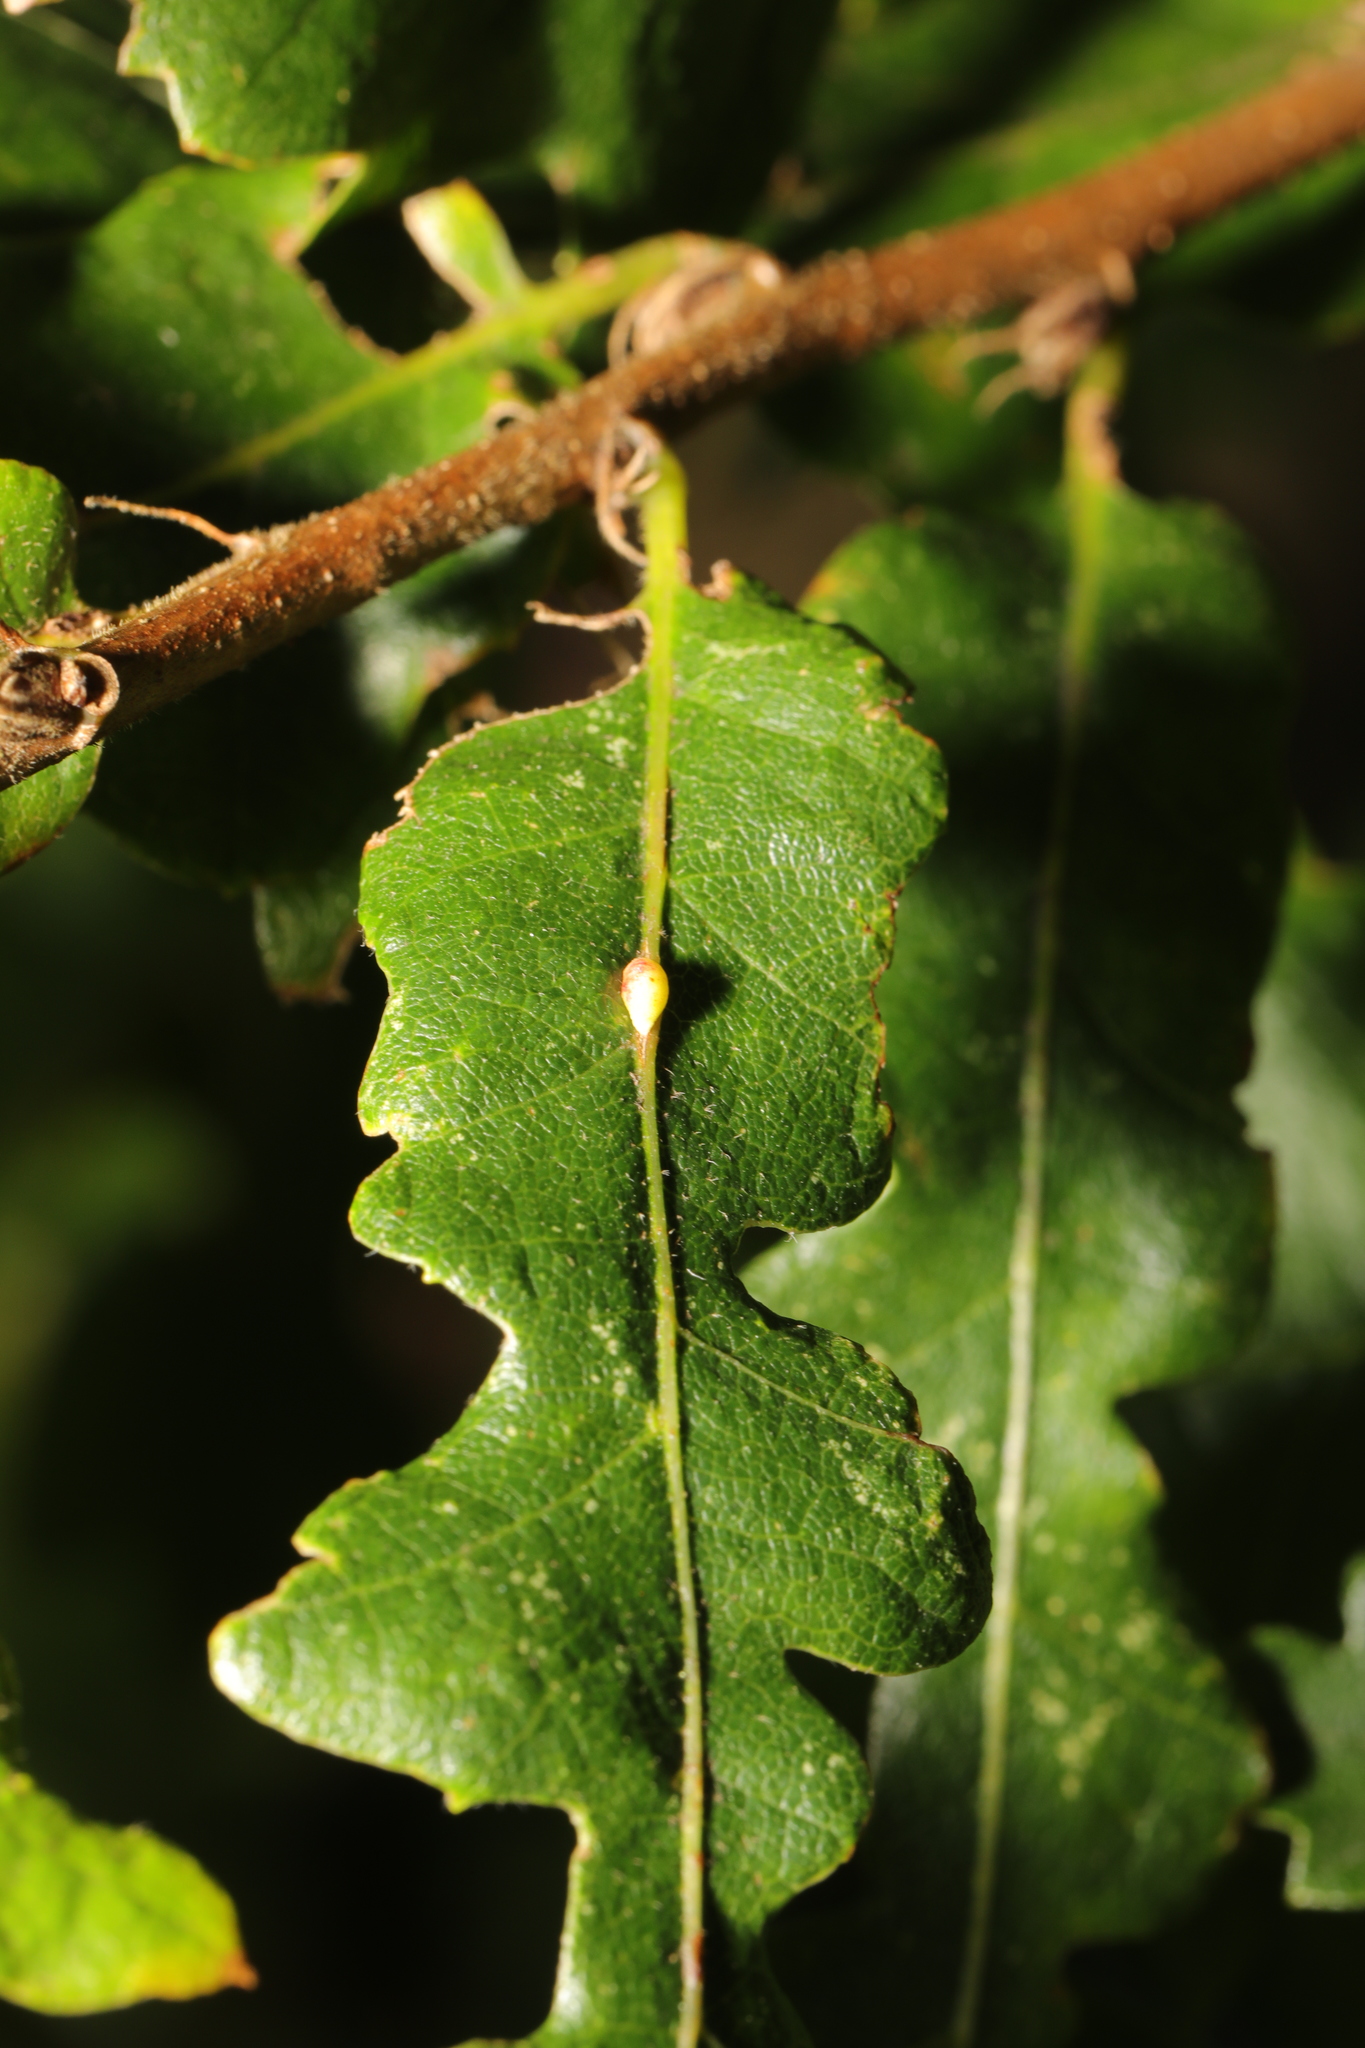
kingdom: Animalia
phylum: Arthropoda
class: Insecta
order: Hymenoptera
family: Cynipidae
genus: Neuroterus
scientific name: Neuroterus saliens
